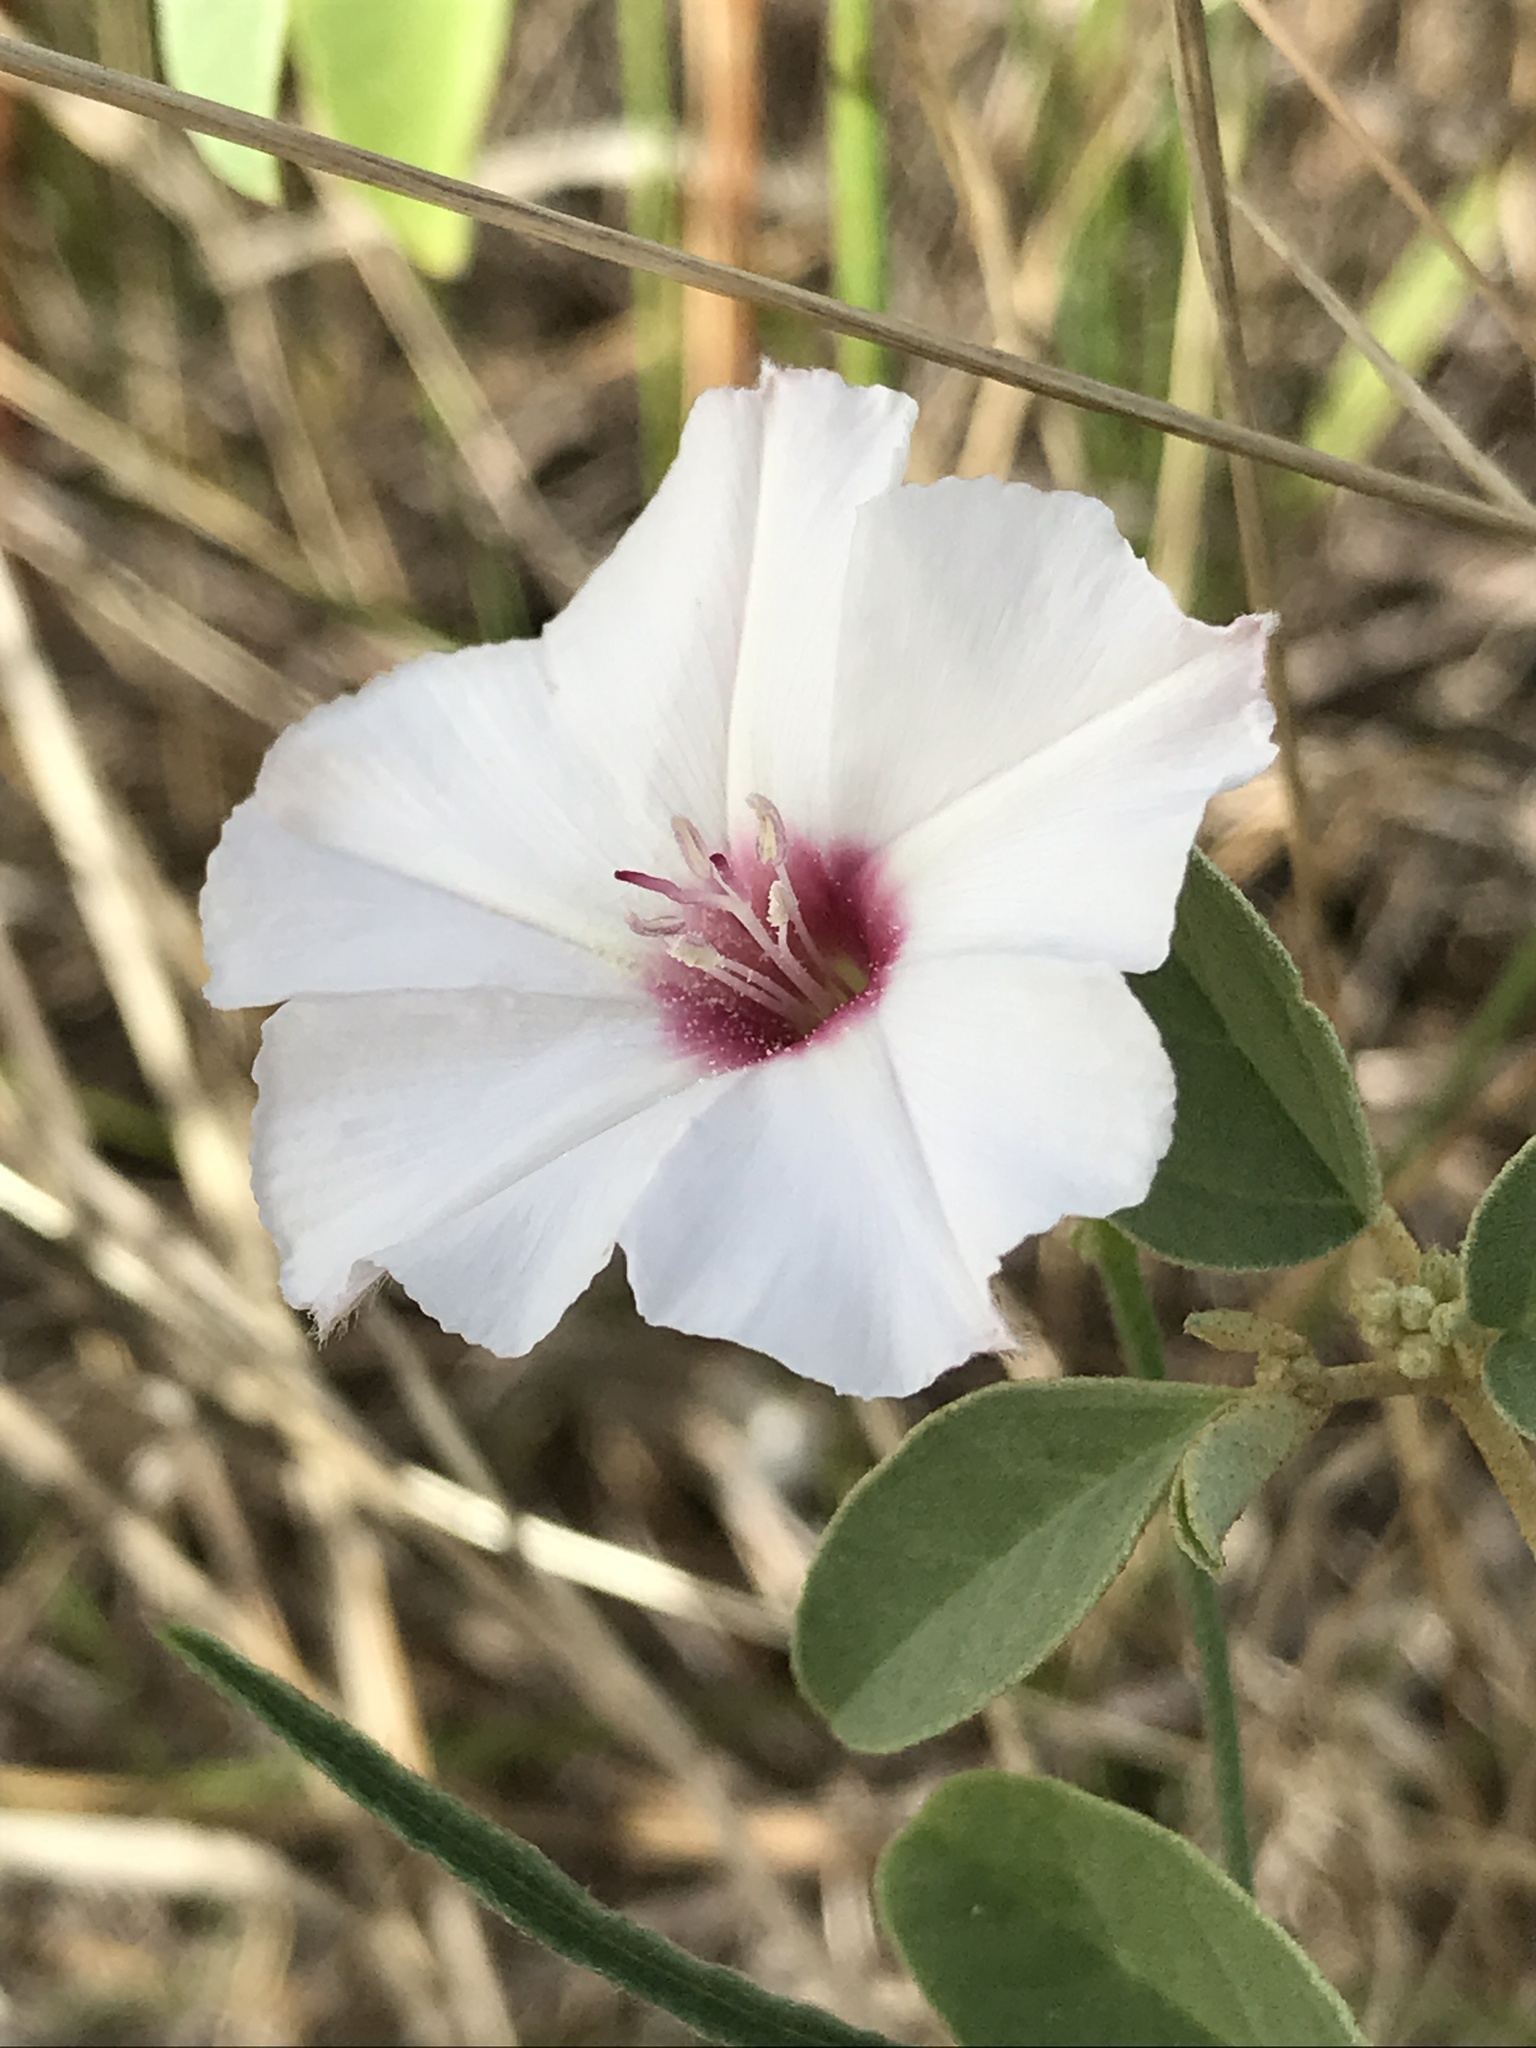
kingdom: Plantae
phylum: Tracheophyta
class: Magnoliopsida
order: Solanales
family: Convolvulaceae
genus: Convolvulus
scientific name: Convolvulus equitans
